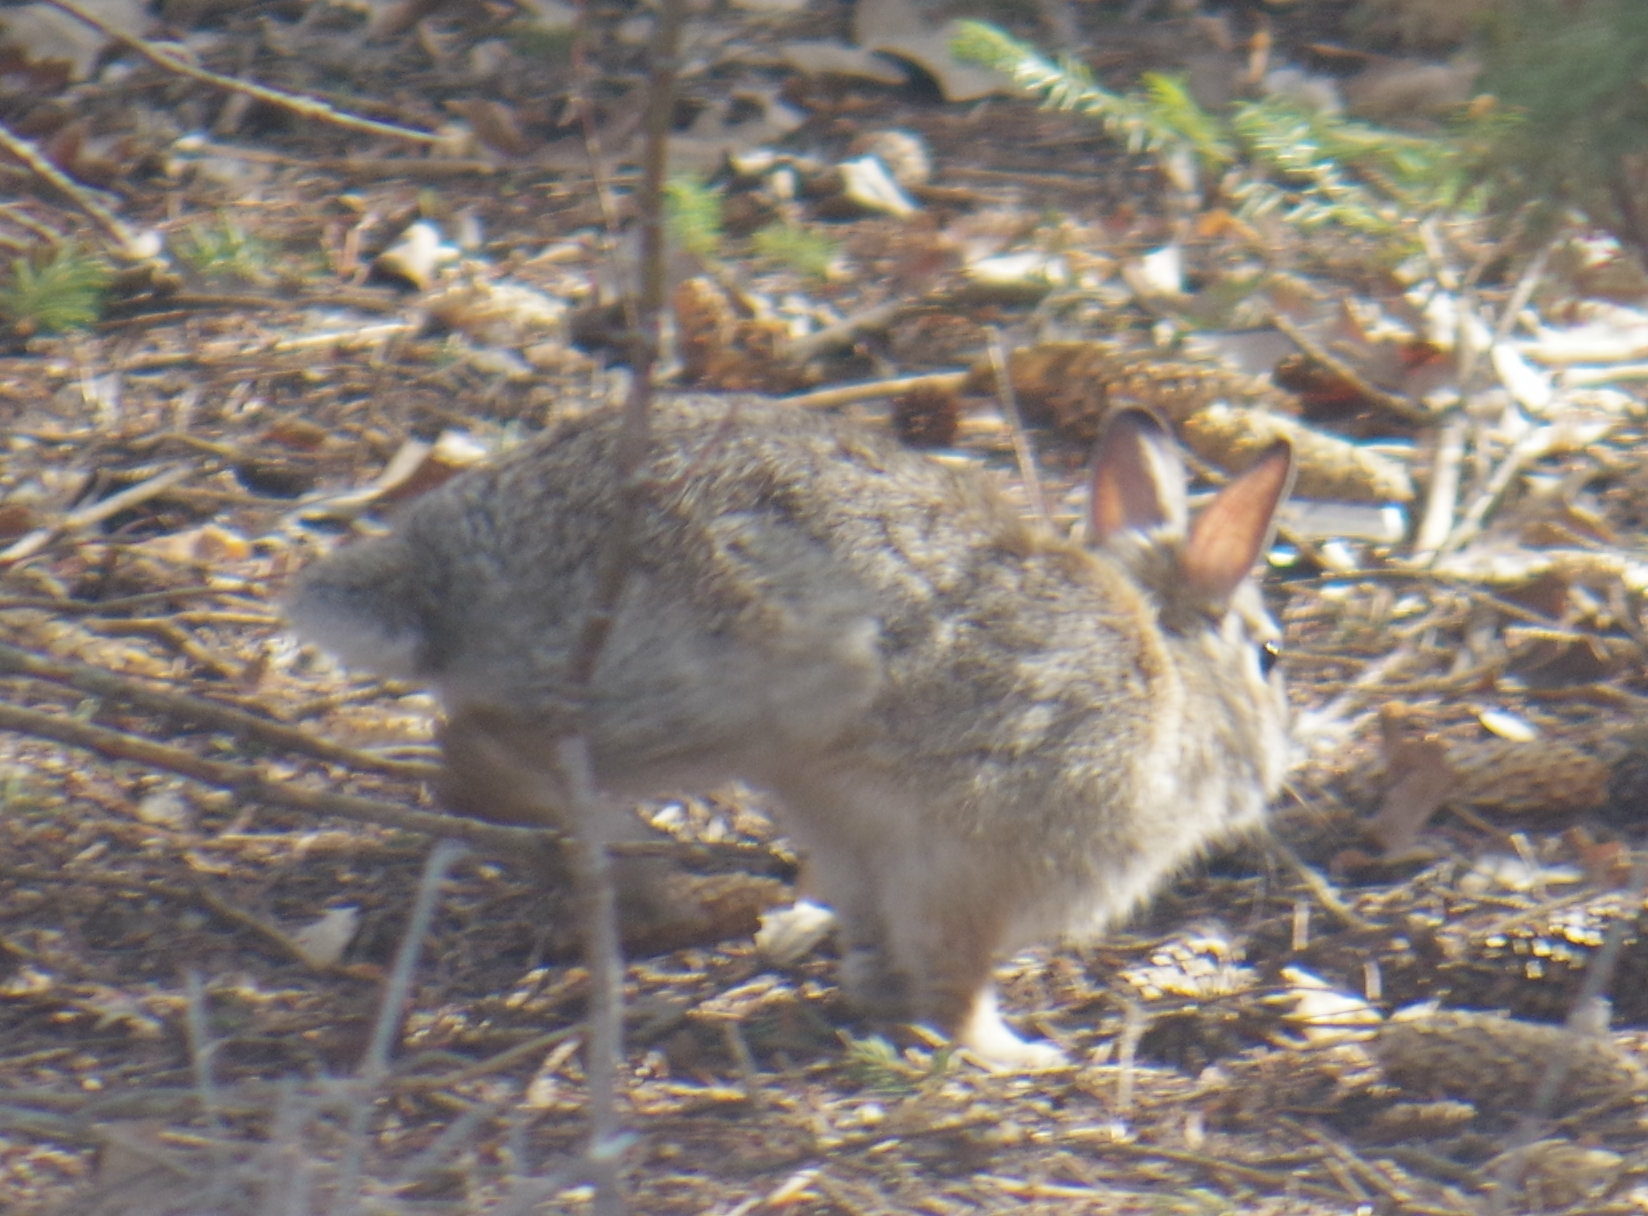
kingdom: Animalia
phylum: Chordata
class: Mammalia
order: Lagomorpha
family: Leporidae
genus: Sylvilagus
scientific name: Sylvilagus floridanus
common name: Eastern cottontail
